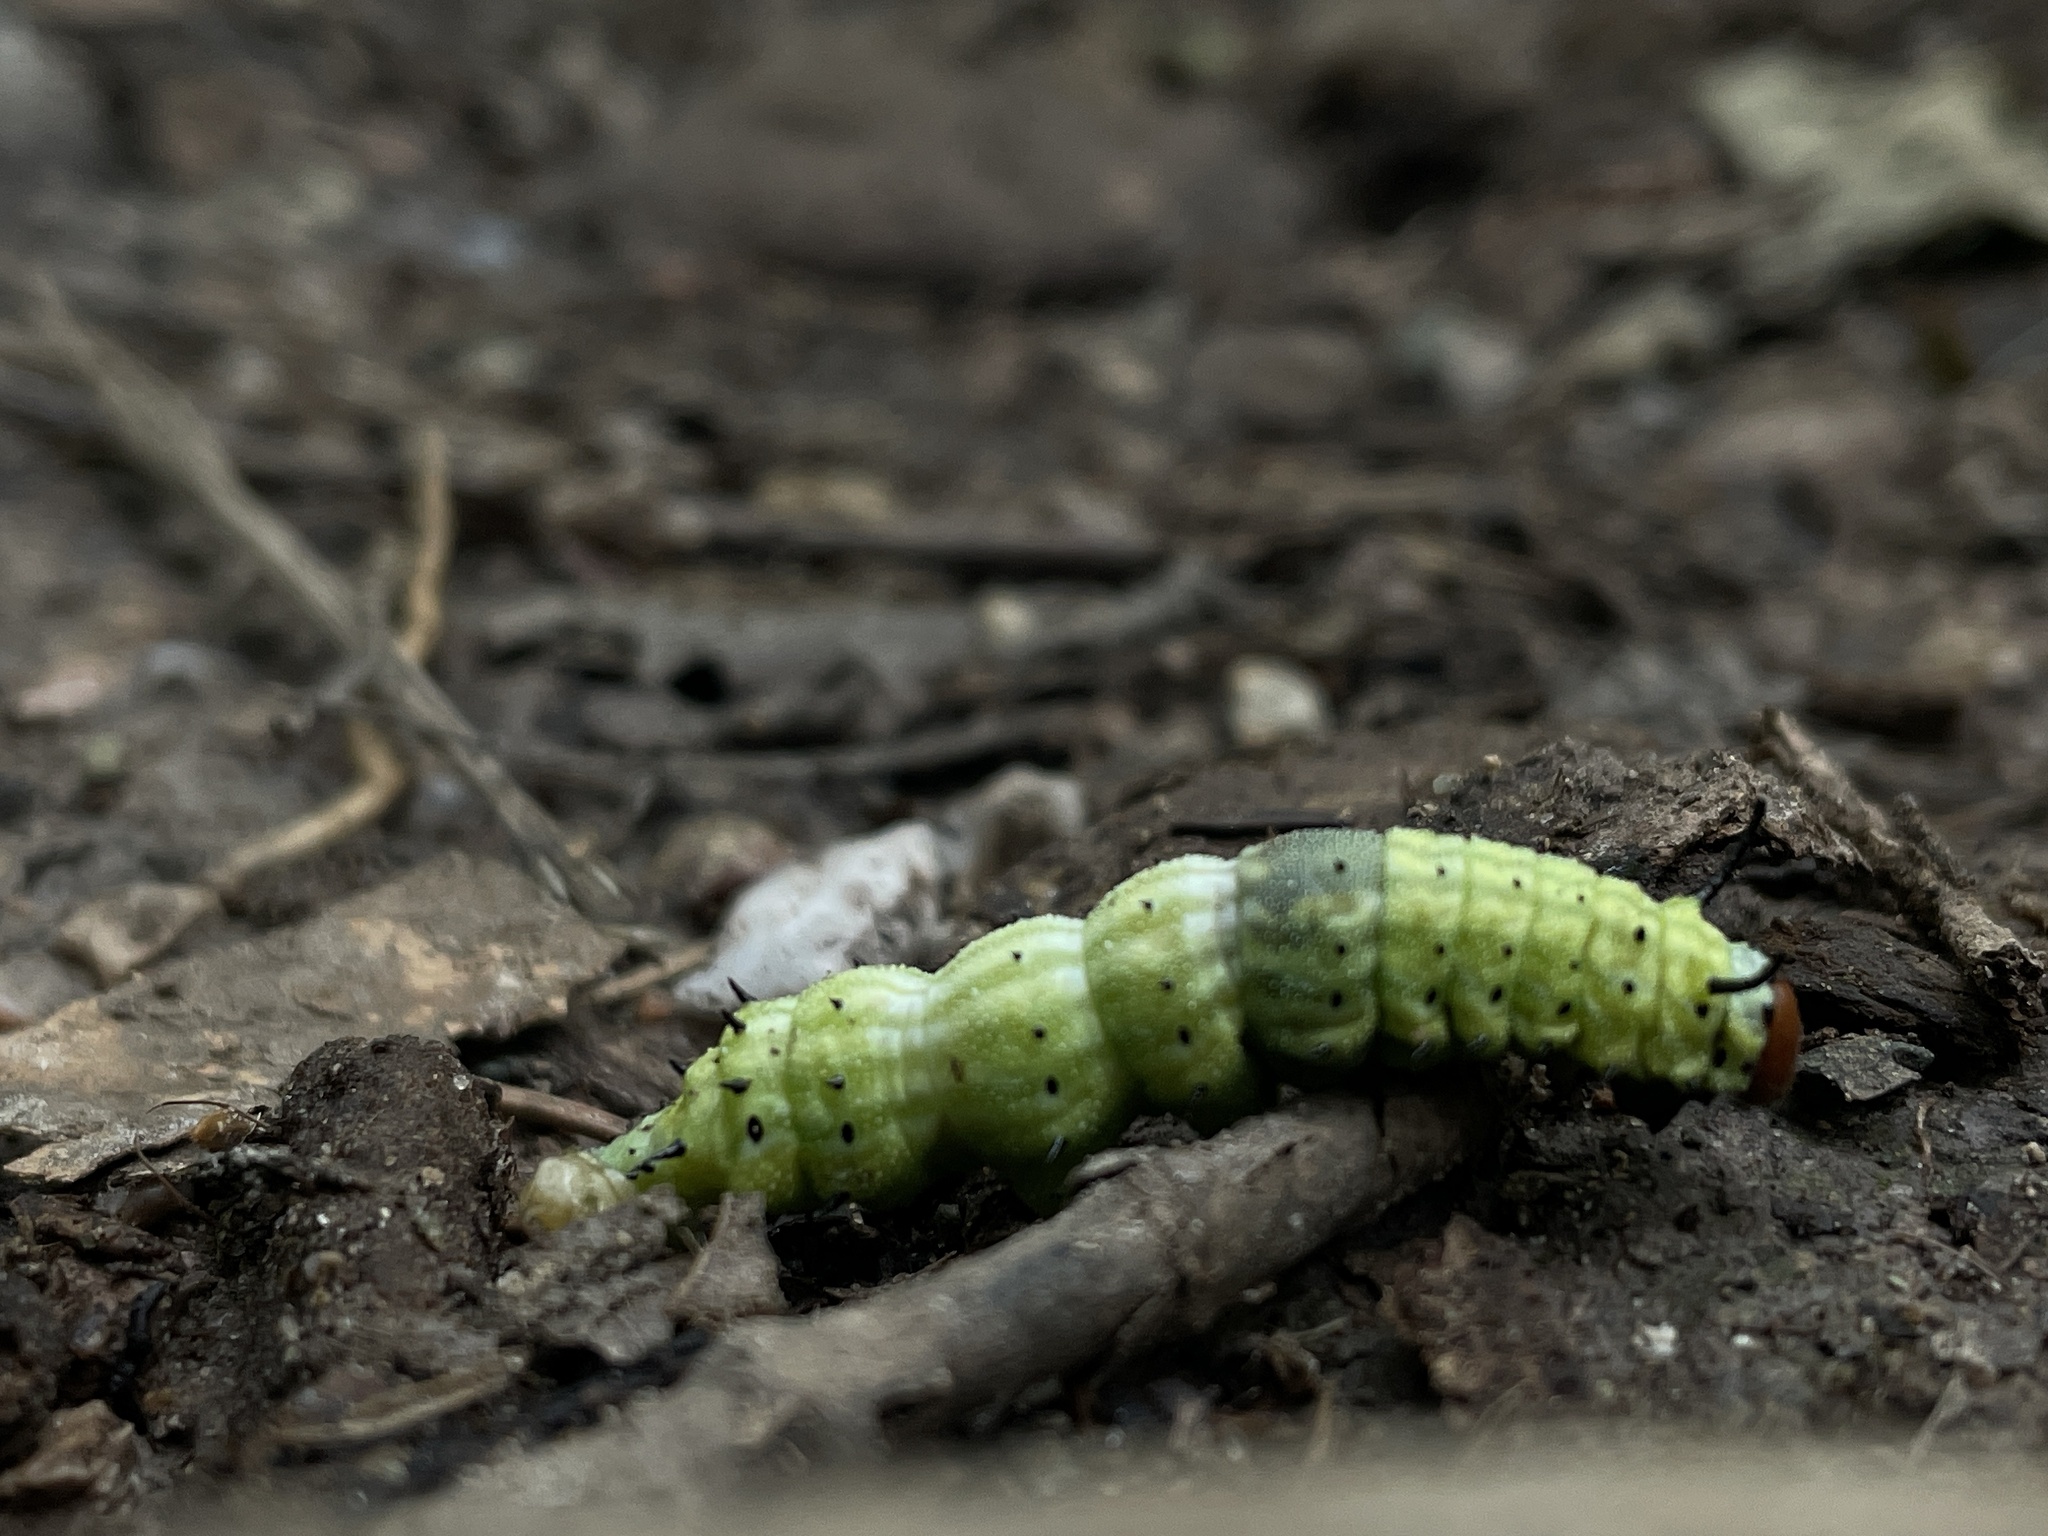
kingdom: Animalia
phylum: Arthropoda
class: Insecta
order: Lepidoptera
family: Saturniidae
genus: Dryocampa
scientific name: Dryocampa rubicunda
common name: Rosy maple moth
